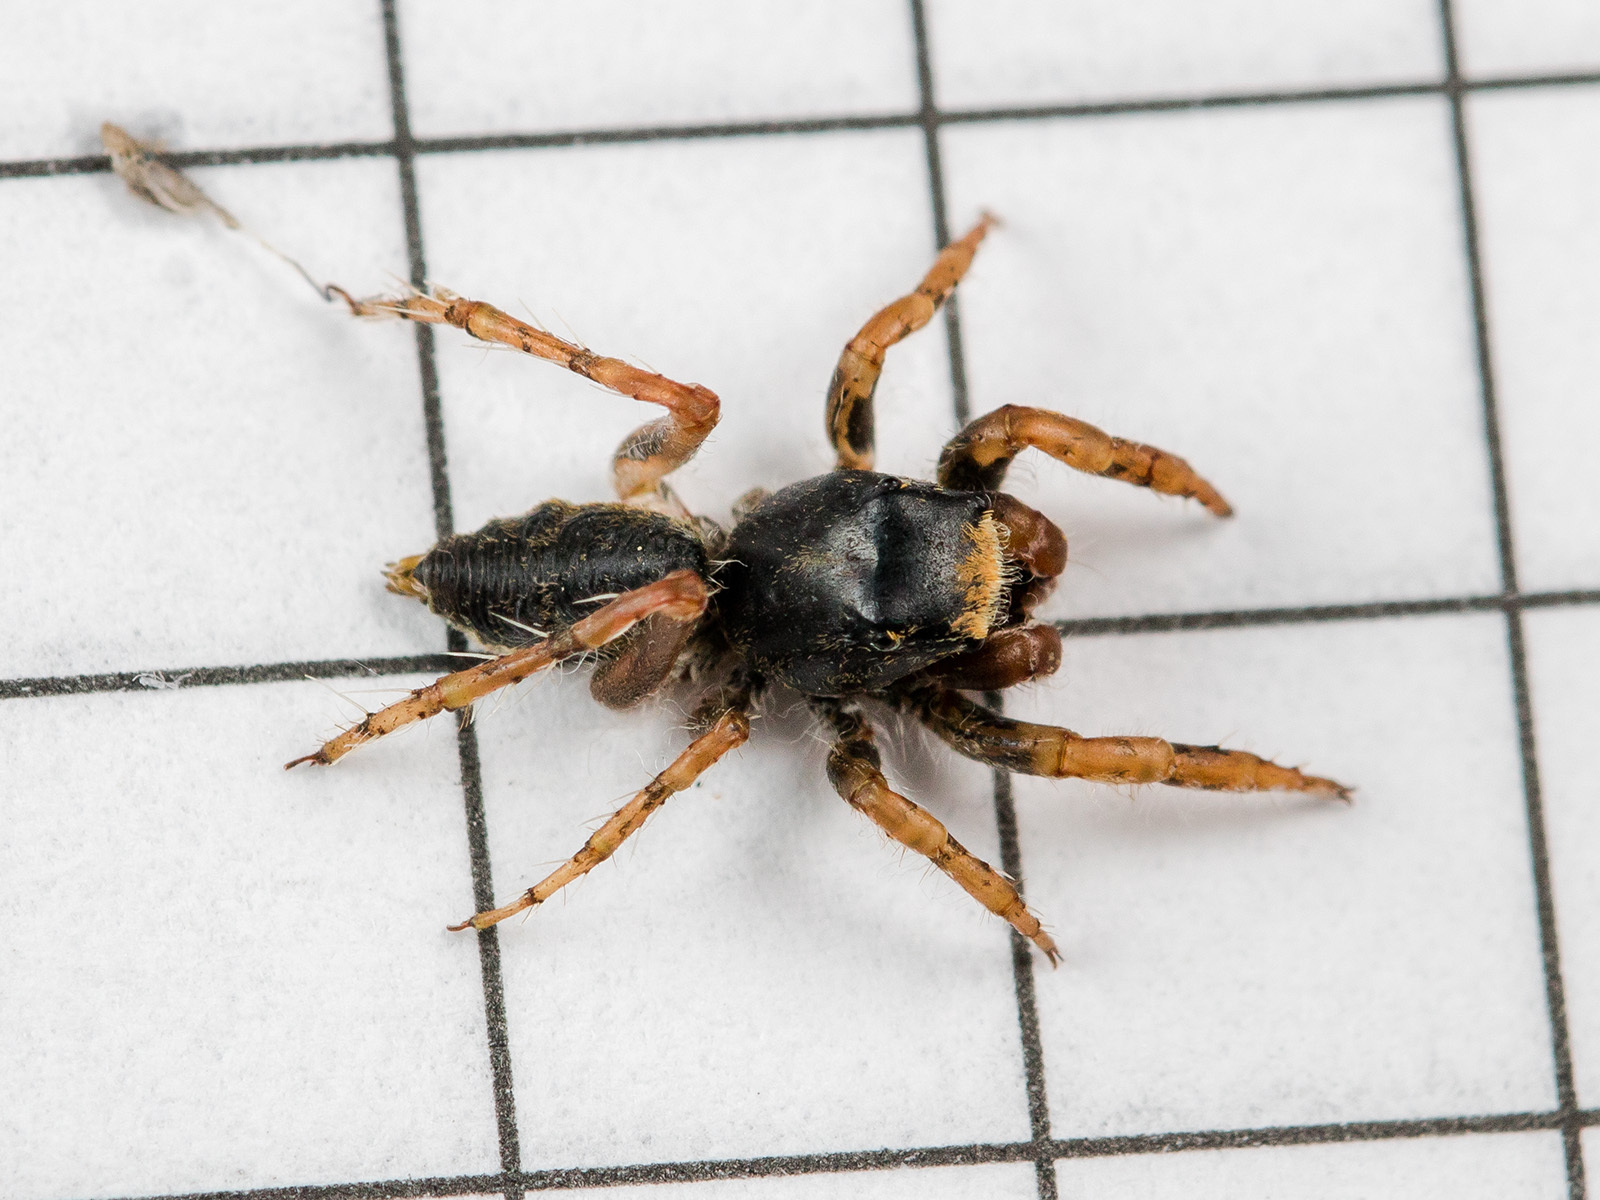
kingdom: Animalia
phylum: Arthropoda
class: Arachnida
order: Araneae
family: Salticidae
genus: Yllenus
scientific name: Yllenus uiguricus
